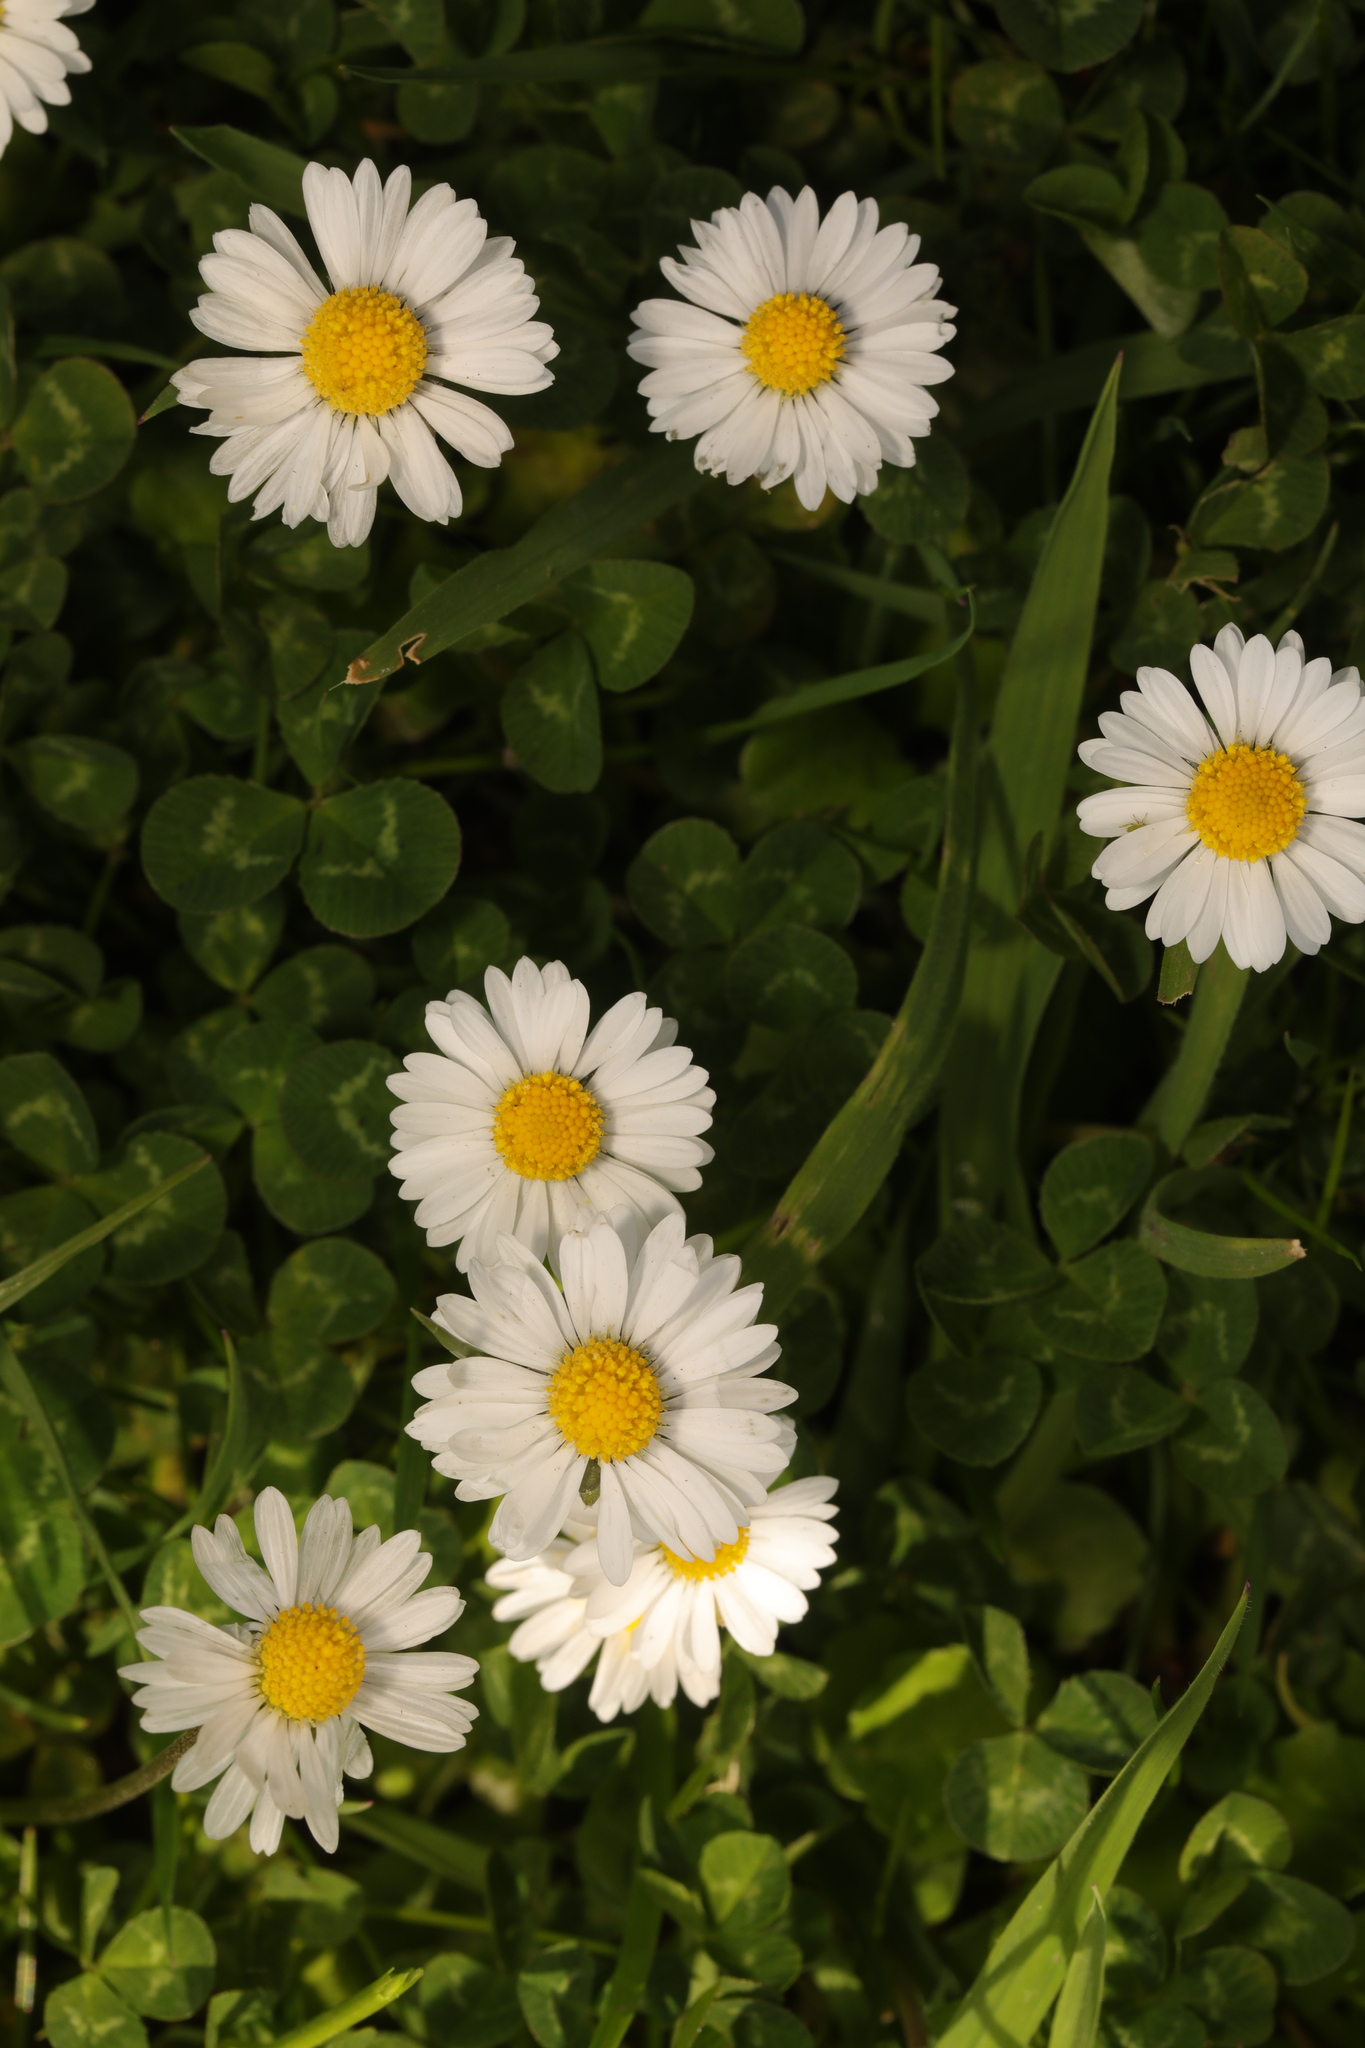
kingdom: Plantae
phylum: Tracheophyta
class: Magnoliopsida
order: Asterales
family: Asteraceae
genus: Bellis
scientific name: Bellis perennis
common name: Lawndaisy
